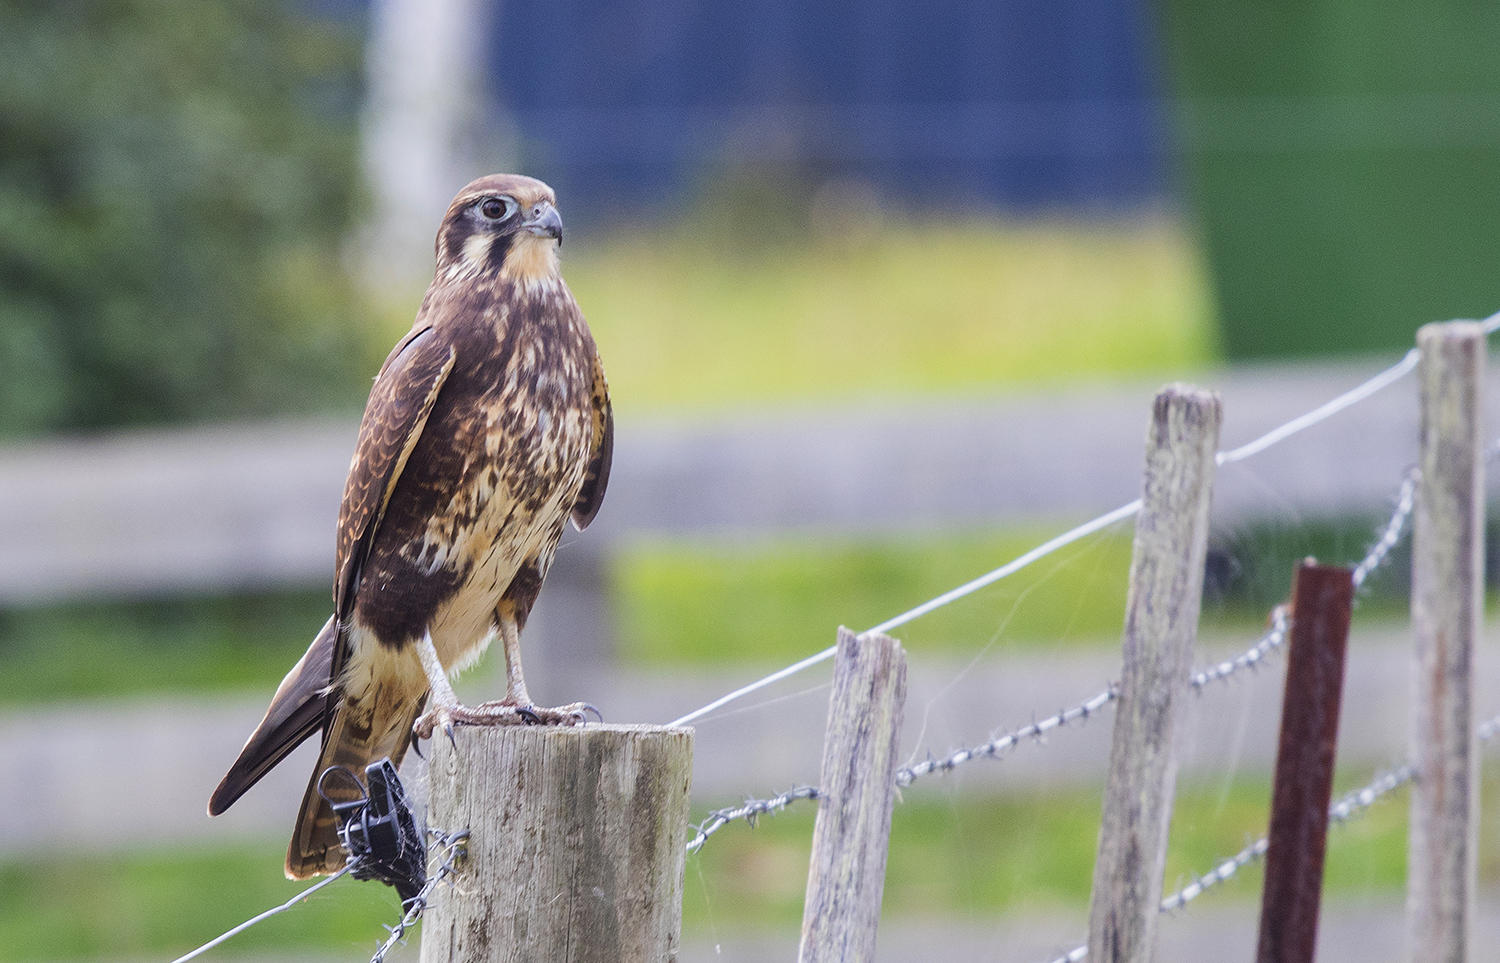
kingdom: Animalia
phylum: Chordata
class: Aves
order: Falconiformes
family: Falconidae
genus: Falco
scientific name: Falco berigora
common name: Brown falcon
